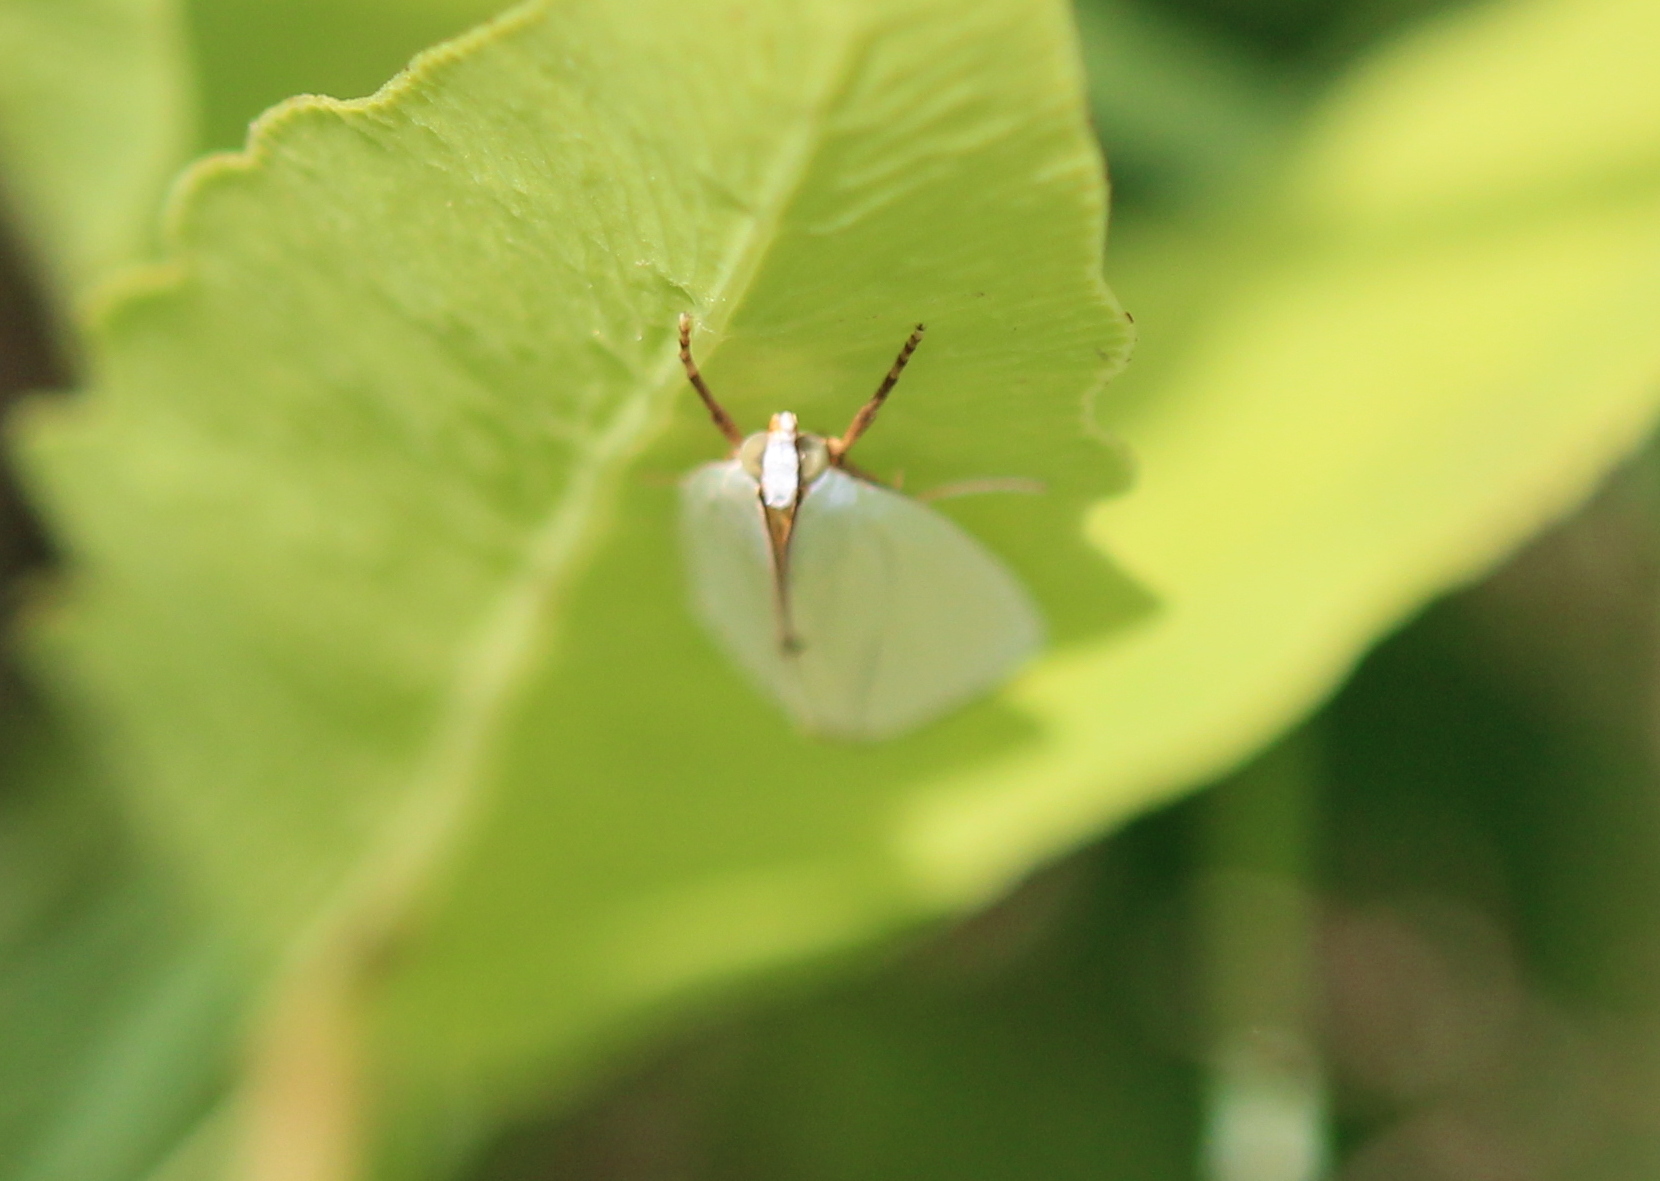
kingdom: Animalia
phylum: Arthropoda
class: Insecta
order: Lepidoptera
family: Crambidae
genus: Argyria
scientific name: Argyria nivalis
